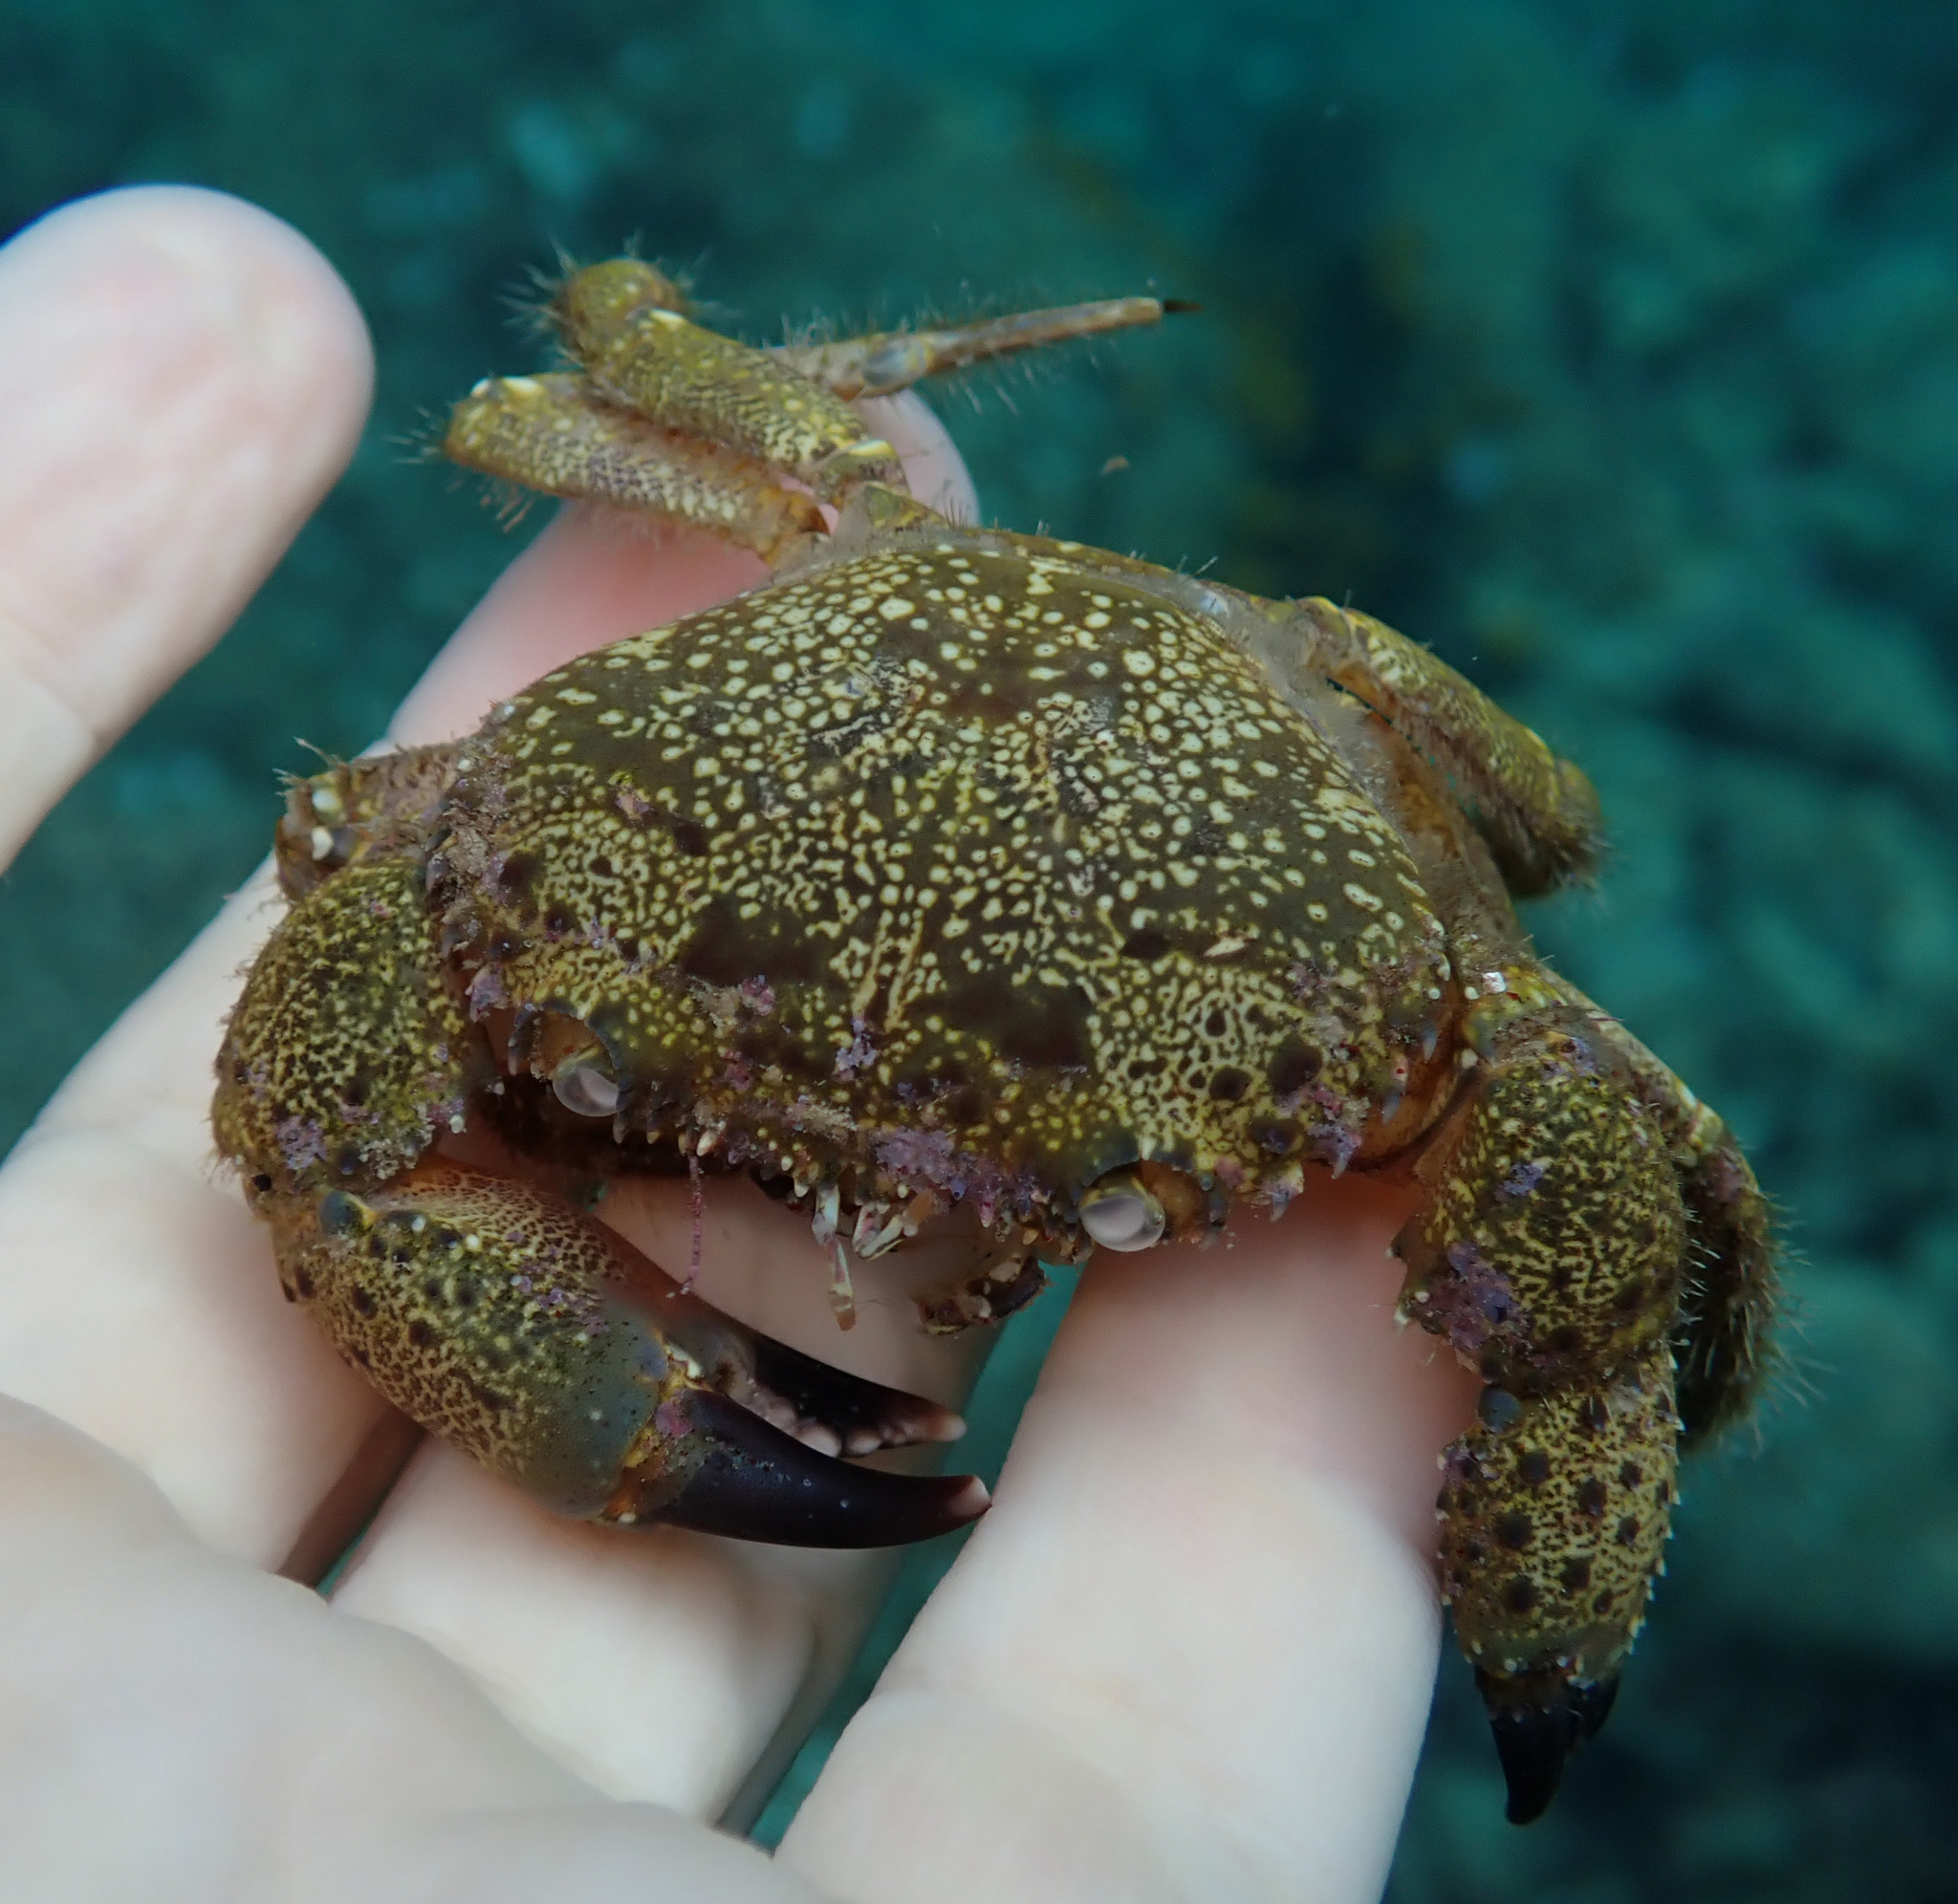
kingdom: Animalia
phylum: Arthropoda
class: Malacostraca
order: Decapoda
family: Eriphiidae
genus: Eriphia
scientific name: Eriphia verrucosa
